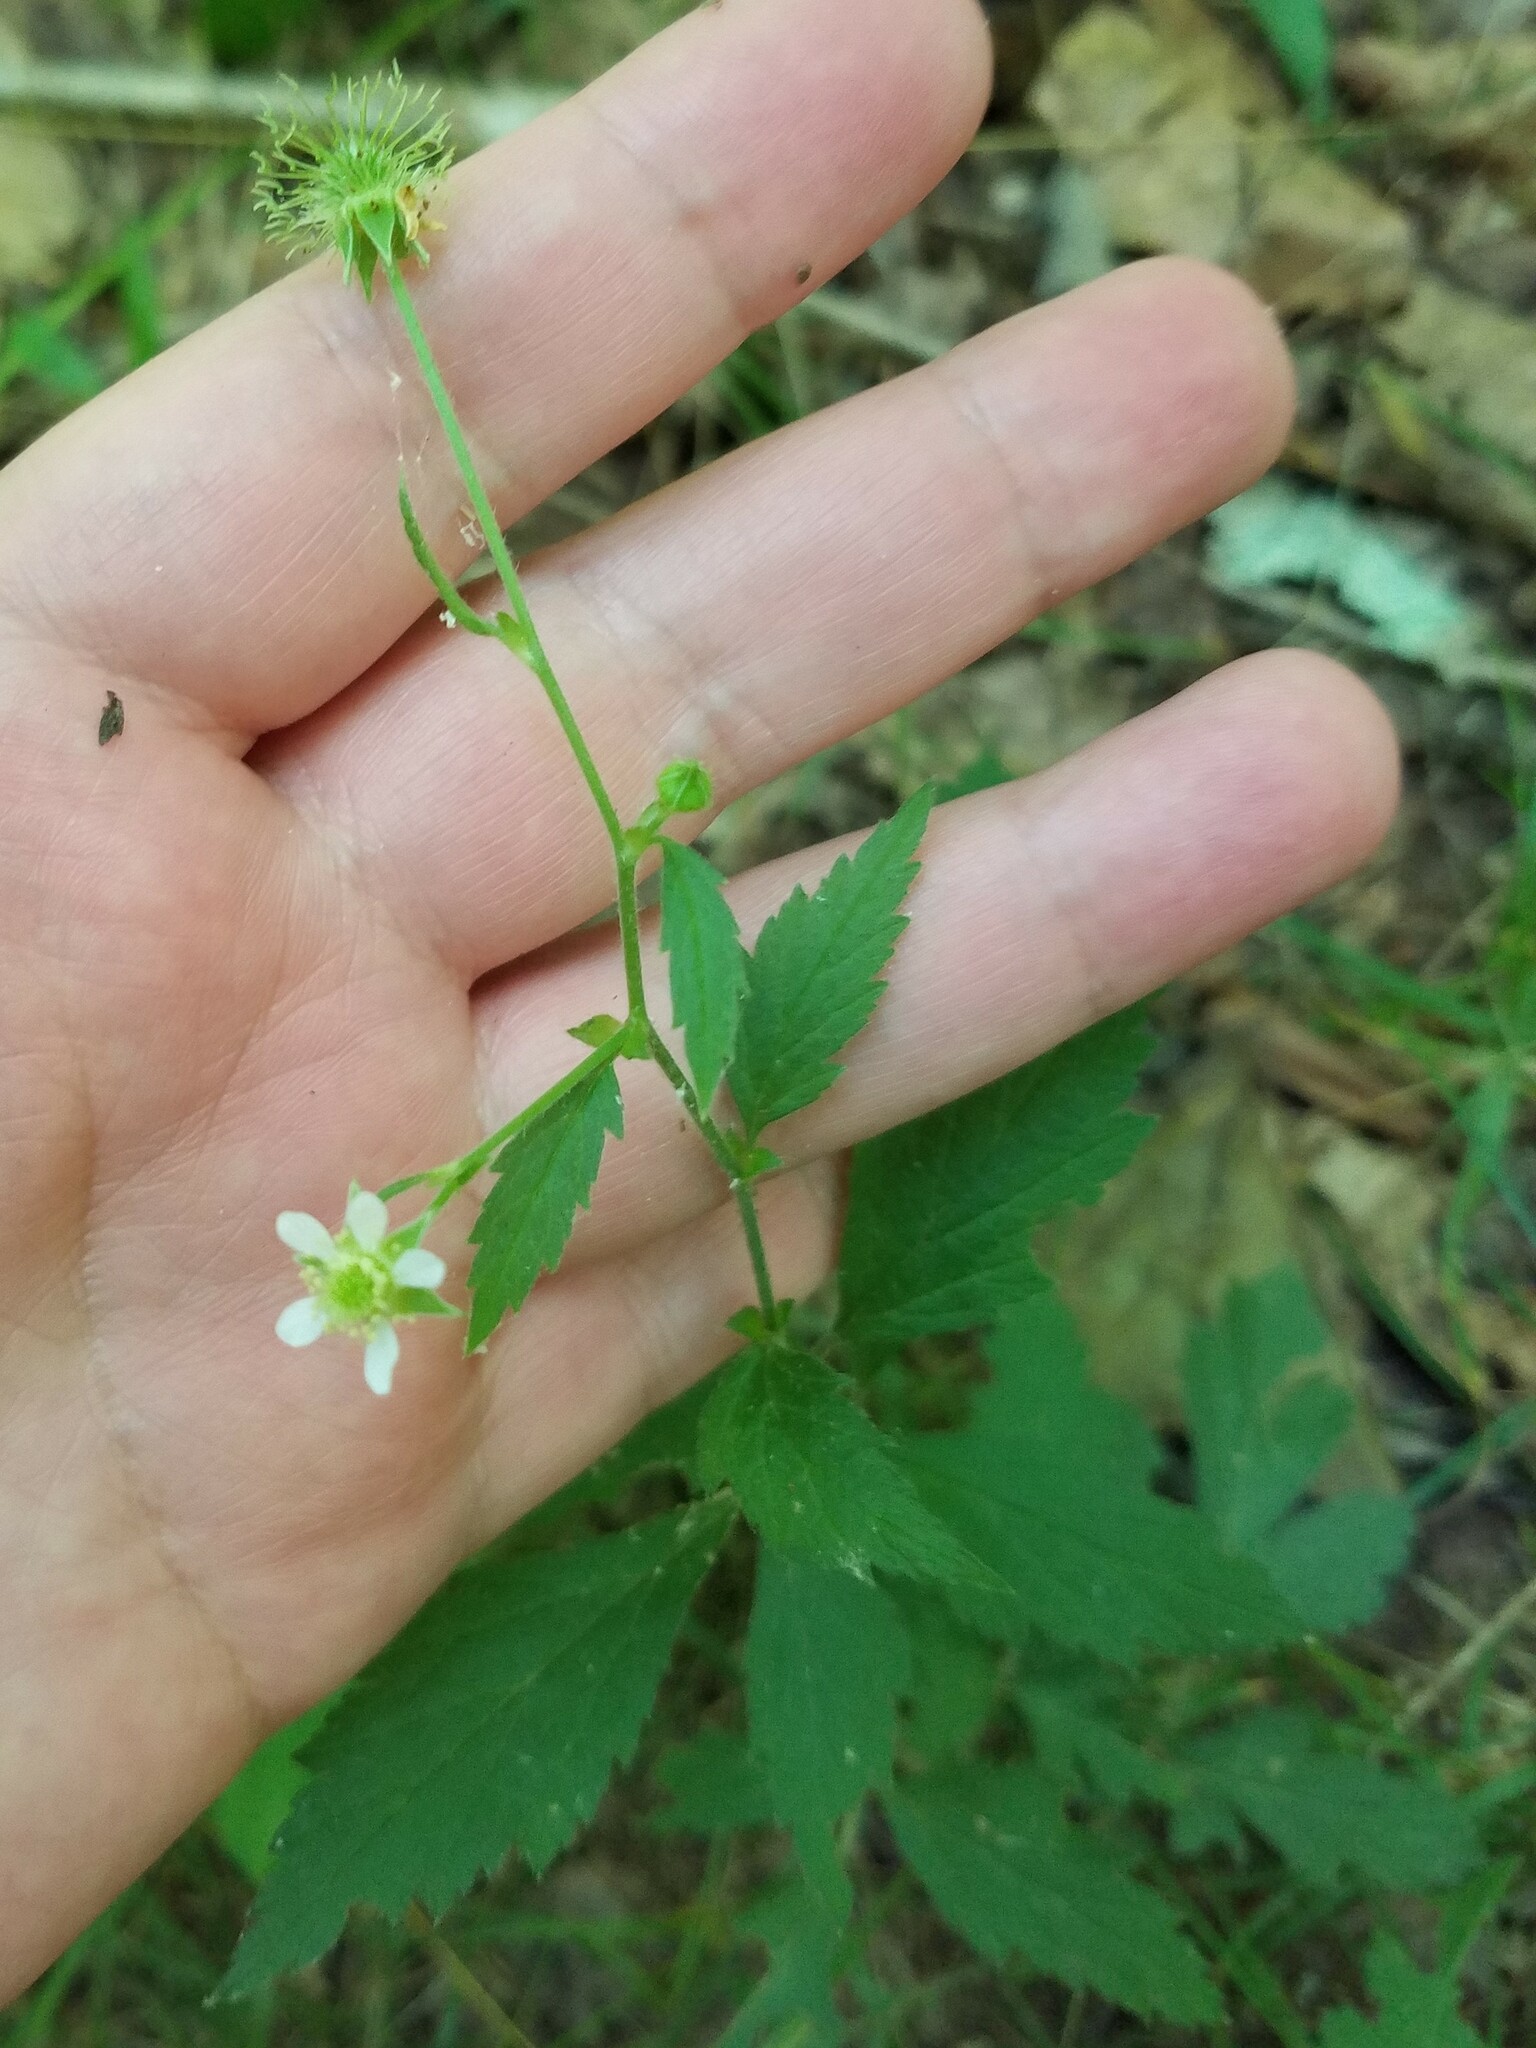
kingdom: Plantae
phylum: Tracheophyta
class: Magnoliopsida
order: Rosales
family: Rosaceae
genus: Geum
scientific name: Geum canadense
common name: White avens
